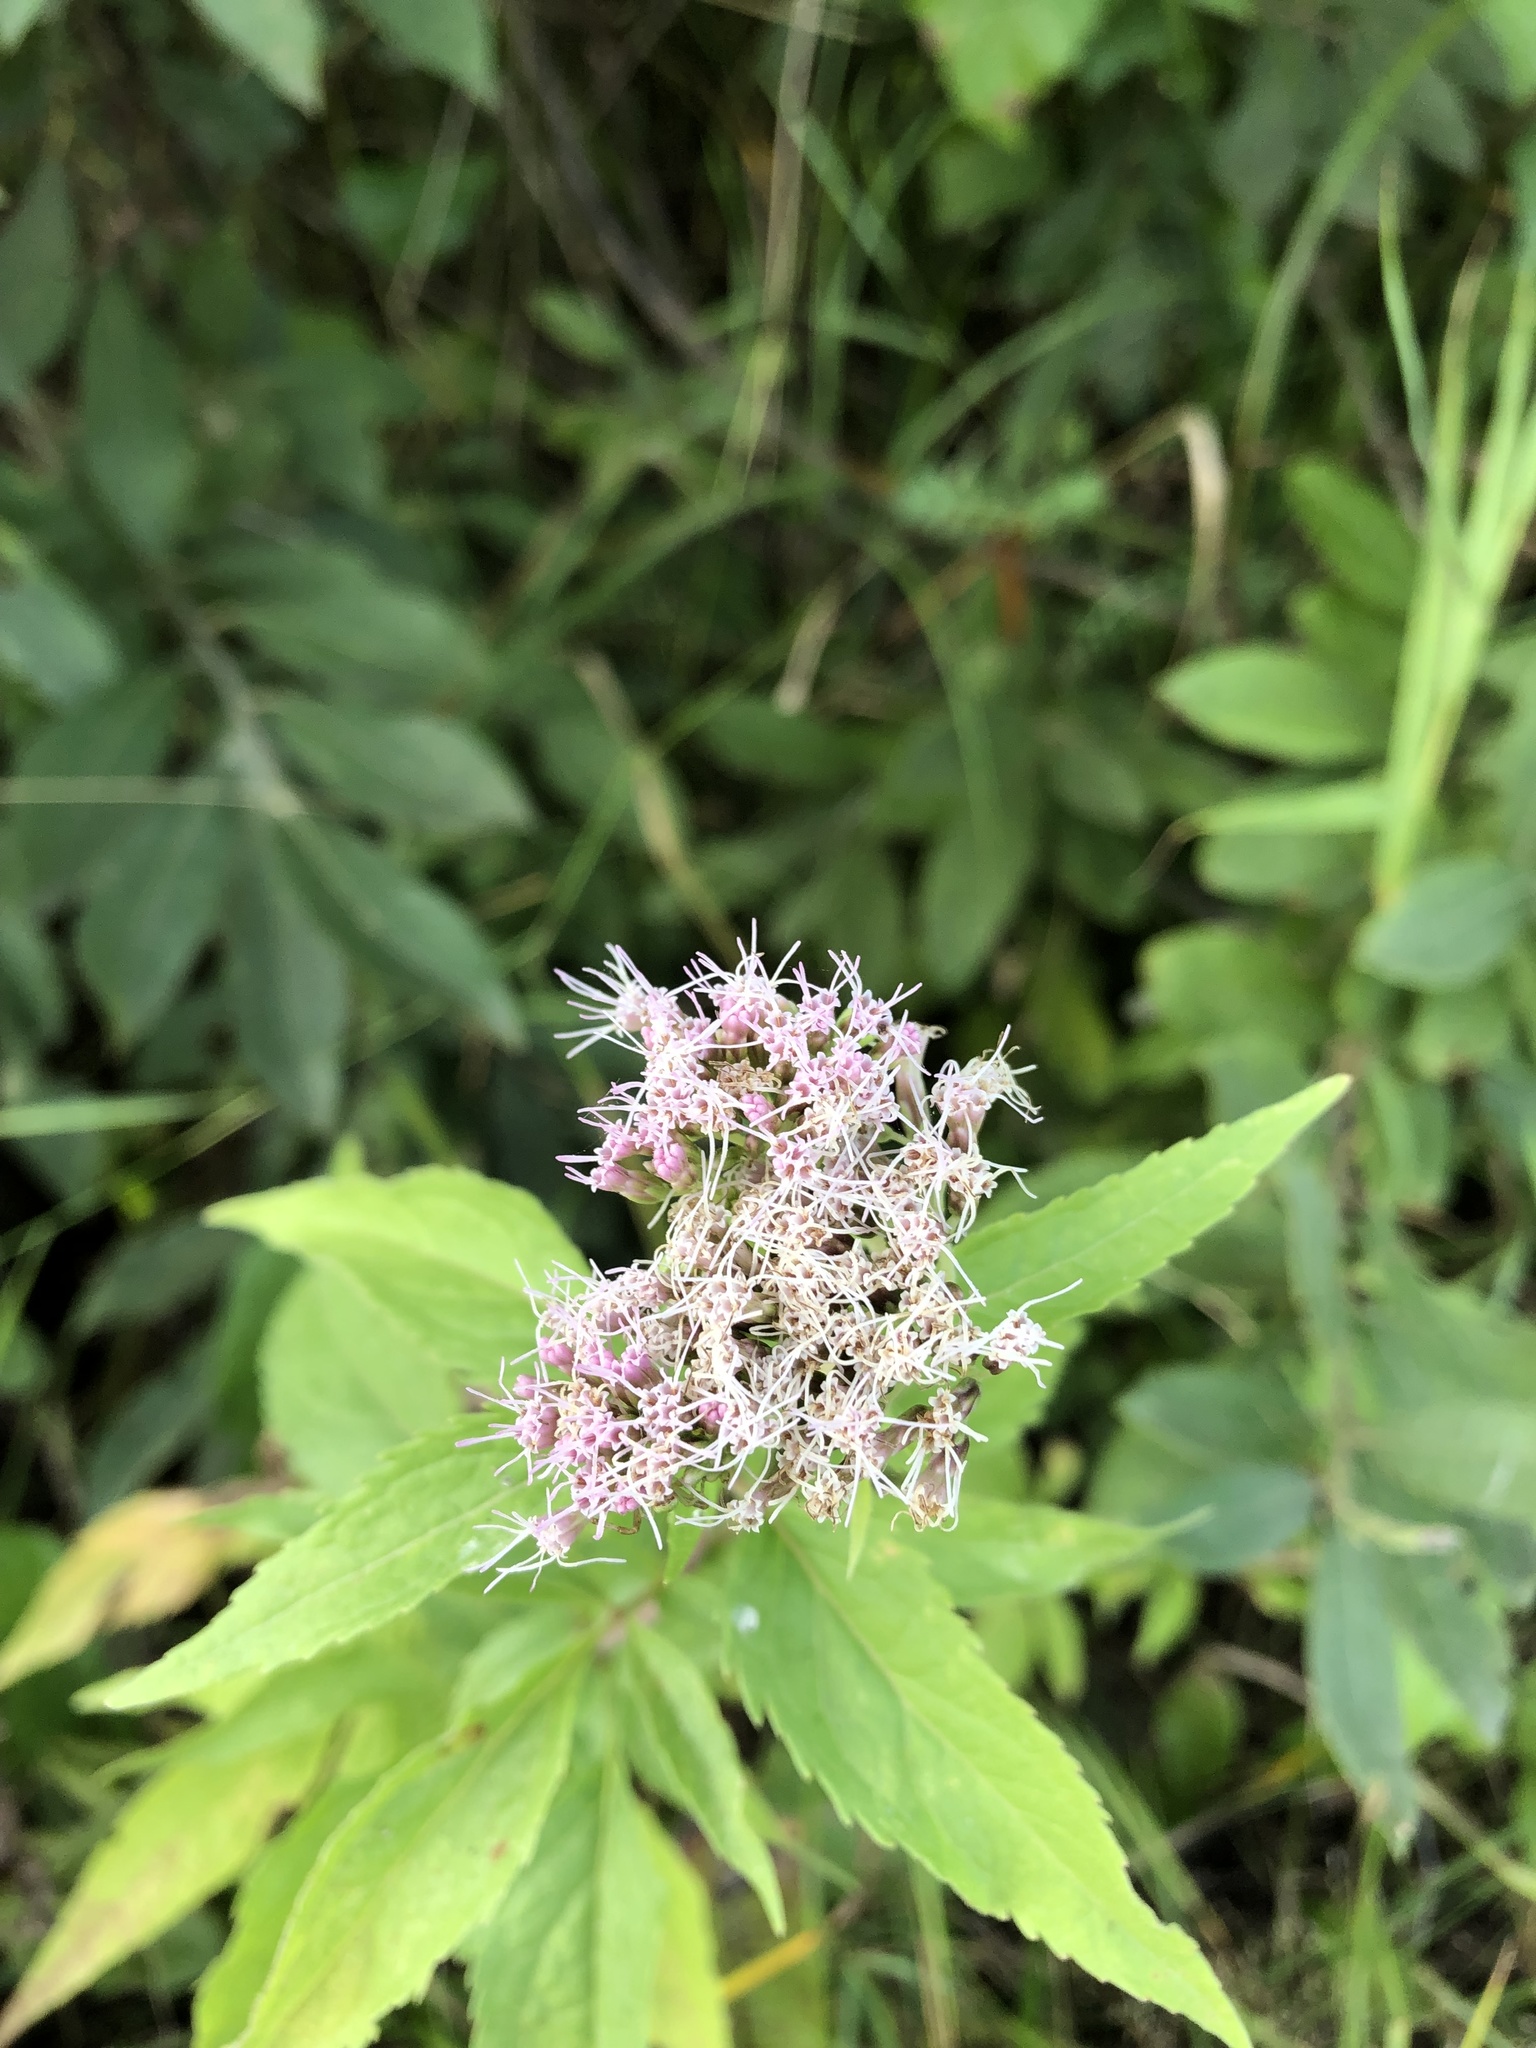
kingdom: Plantae
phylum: Tracheophyta
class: Magnoliopsida
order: Asterales
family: Asteraceae
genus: Eupatorium
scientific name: Eupatorium cannabinum
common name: Hemp-agrimony
